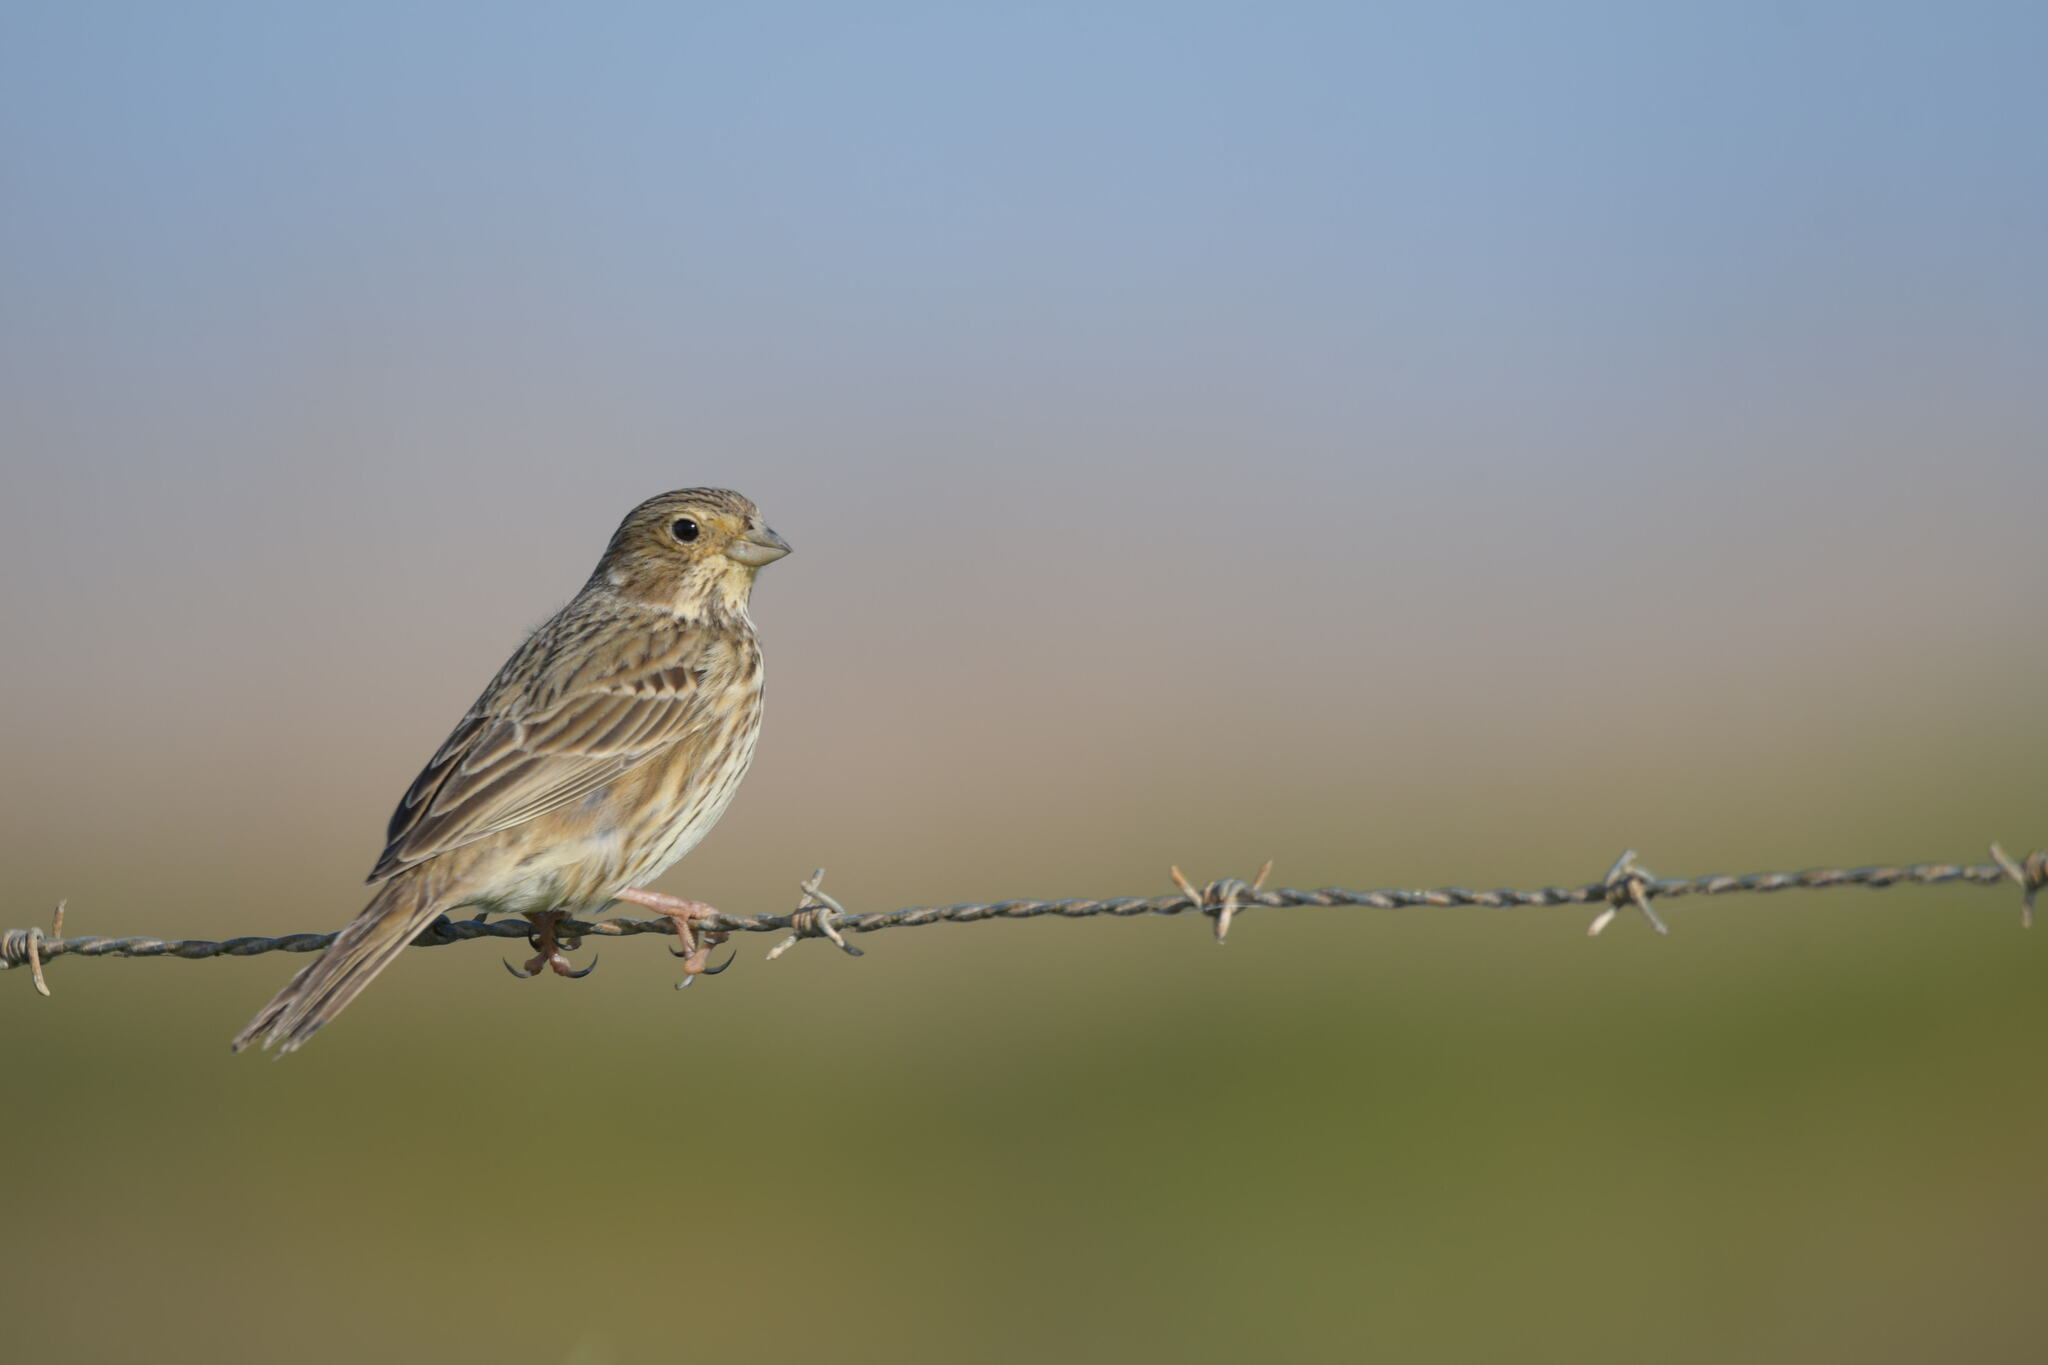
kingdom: Animalia
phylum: Chordata
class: Aves
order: Passeriformes
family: Emberizidae
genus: Emberiza
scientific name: Emberiza calandra
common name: Corn bunting
